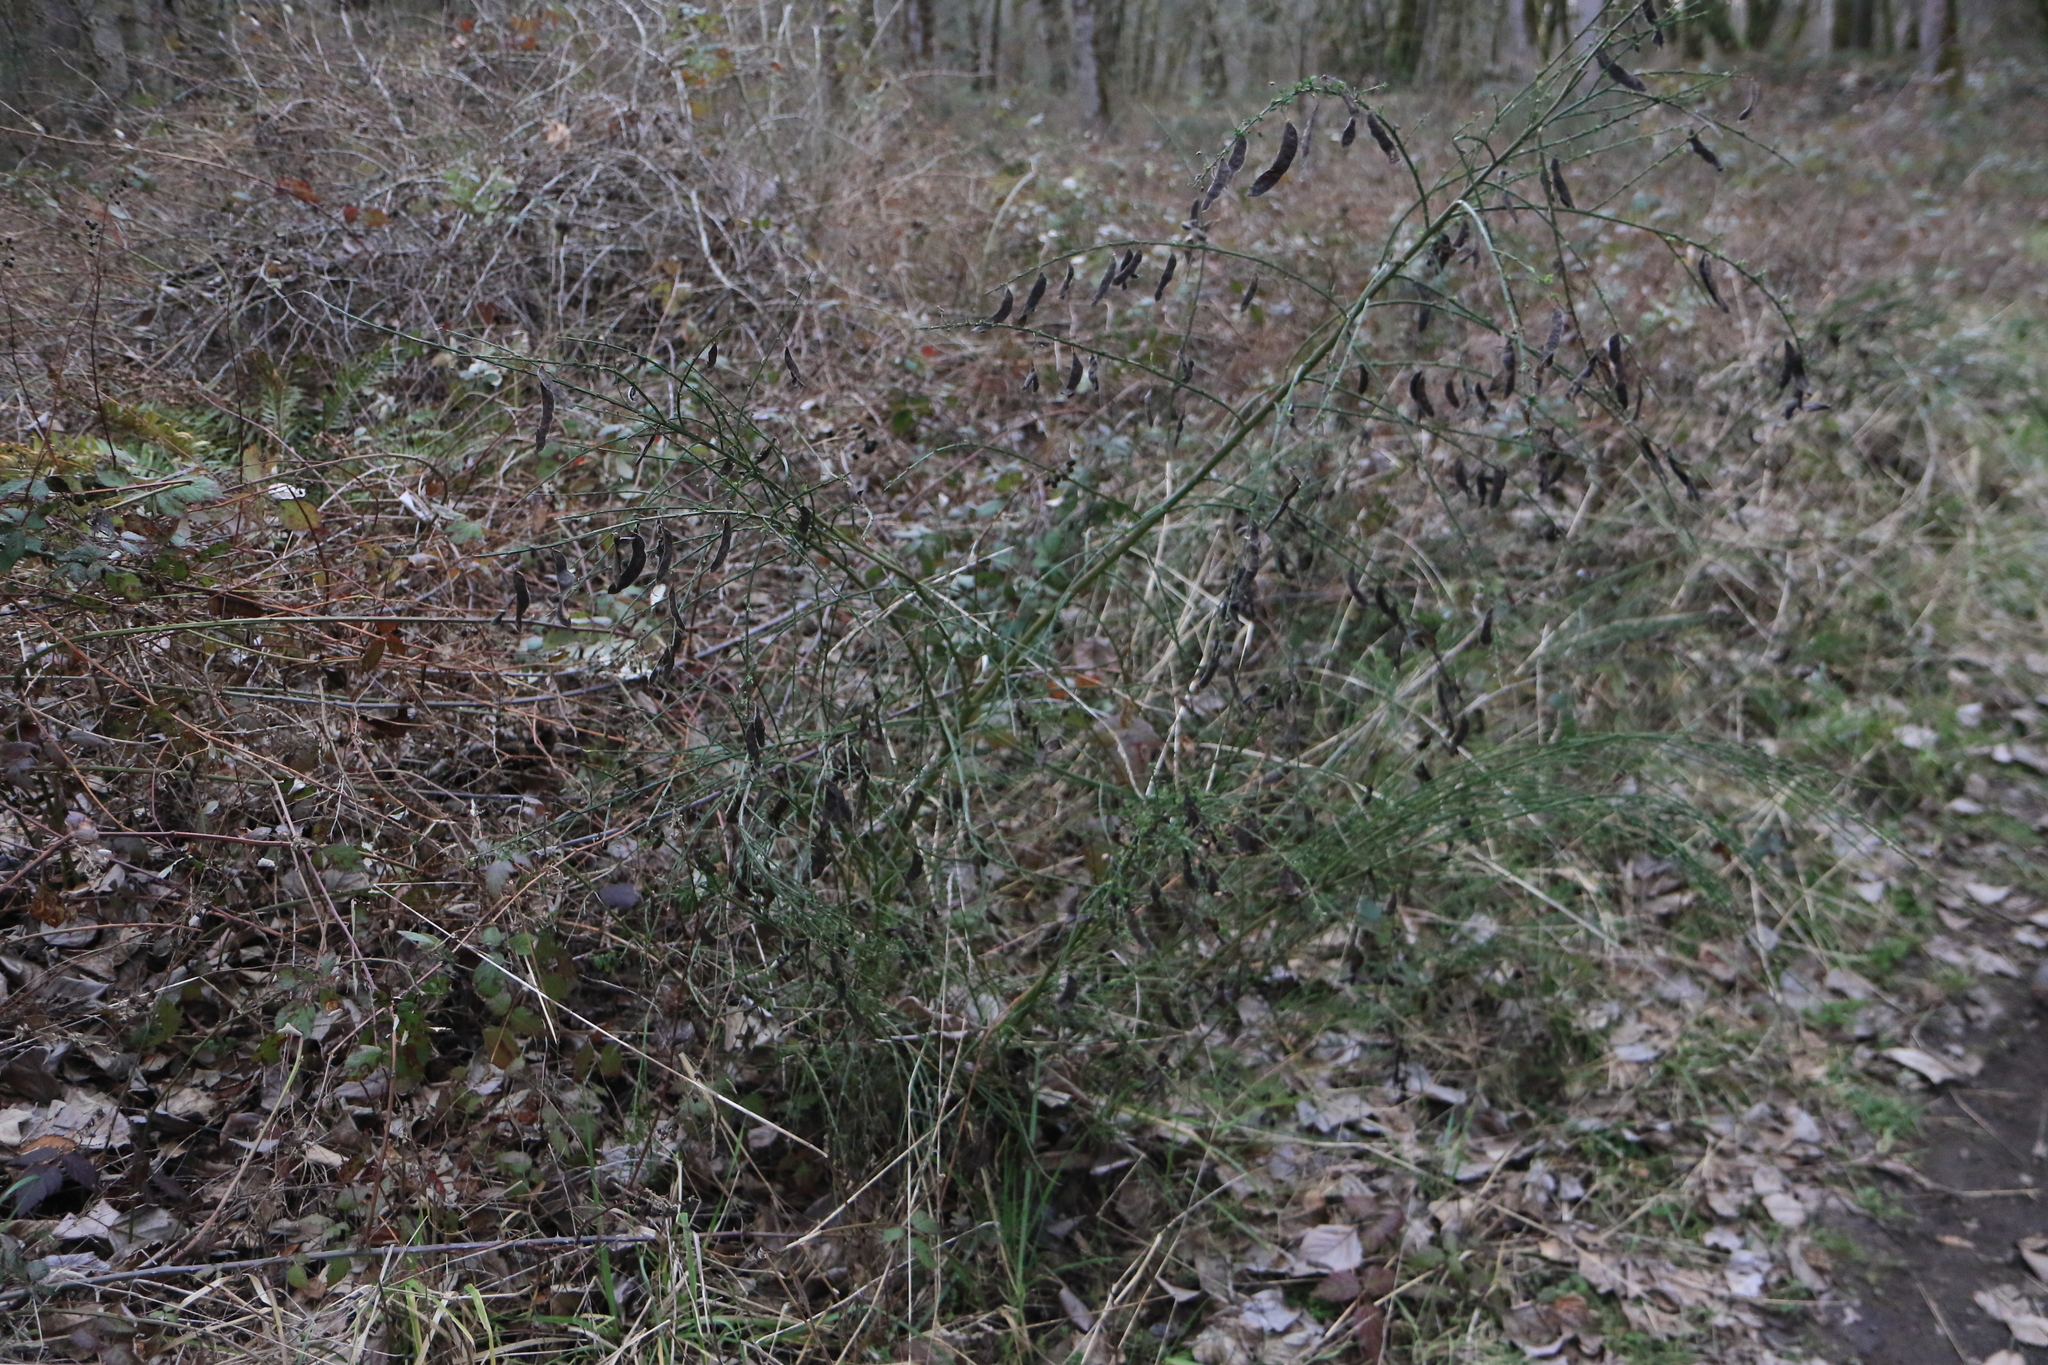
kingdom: Plantae
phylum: Tracheophyta
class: Magnoliopsida
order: Fabales
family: Fabaceae
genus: Cytisus
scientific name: Cytisus scoparius
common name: Scotch broom
